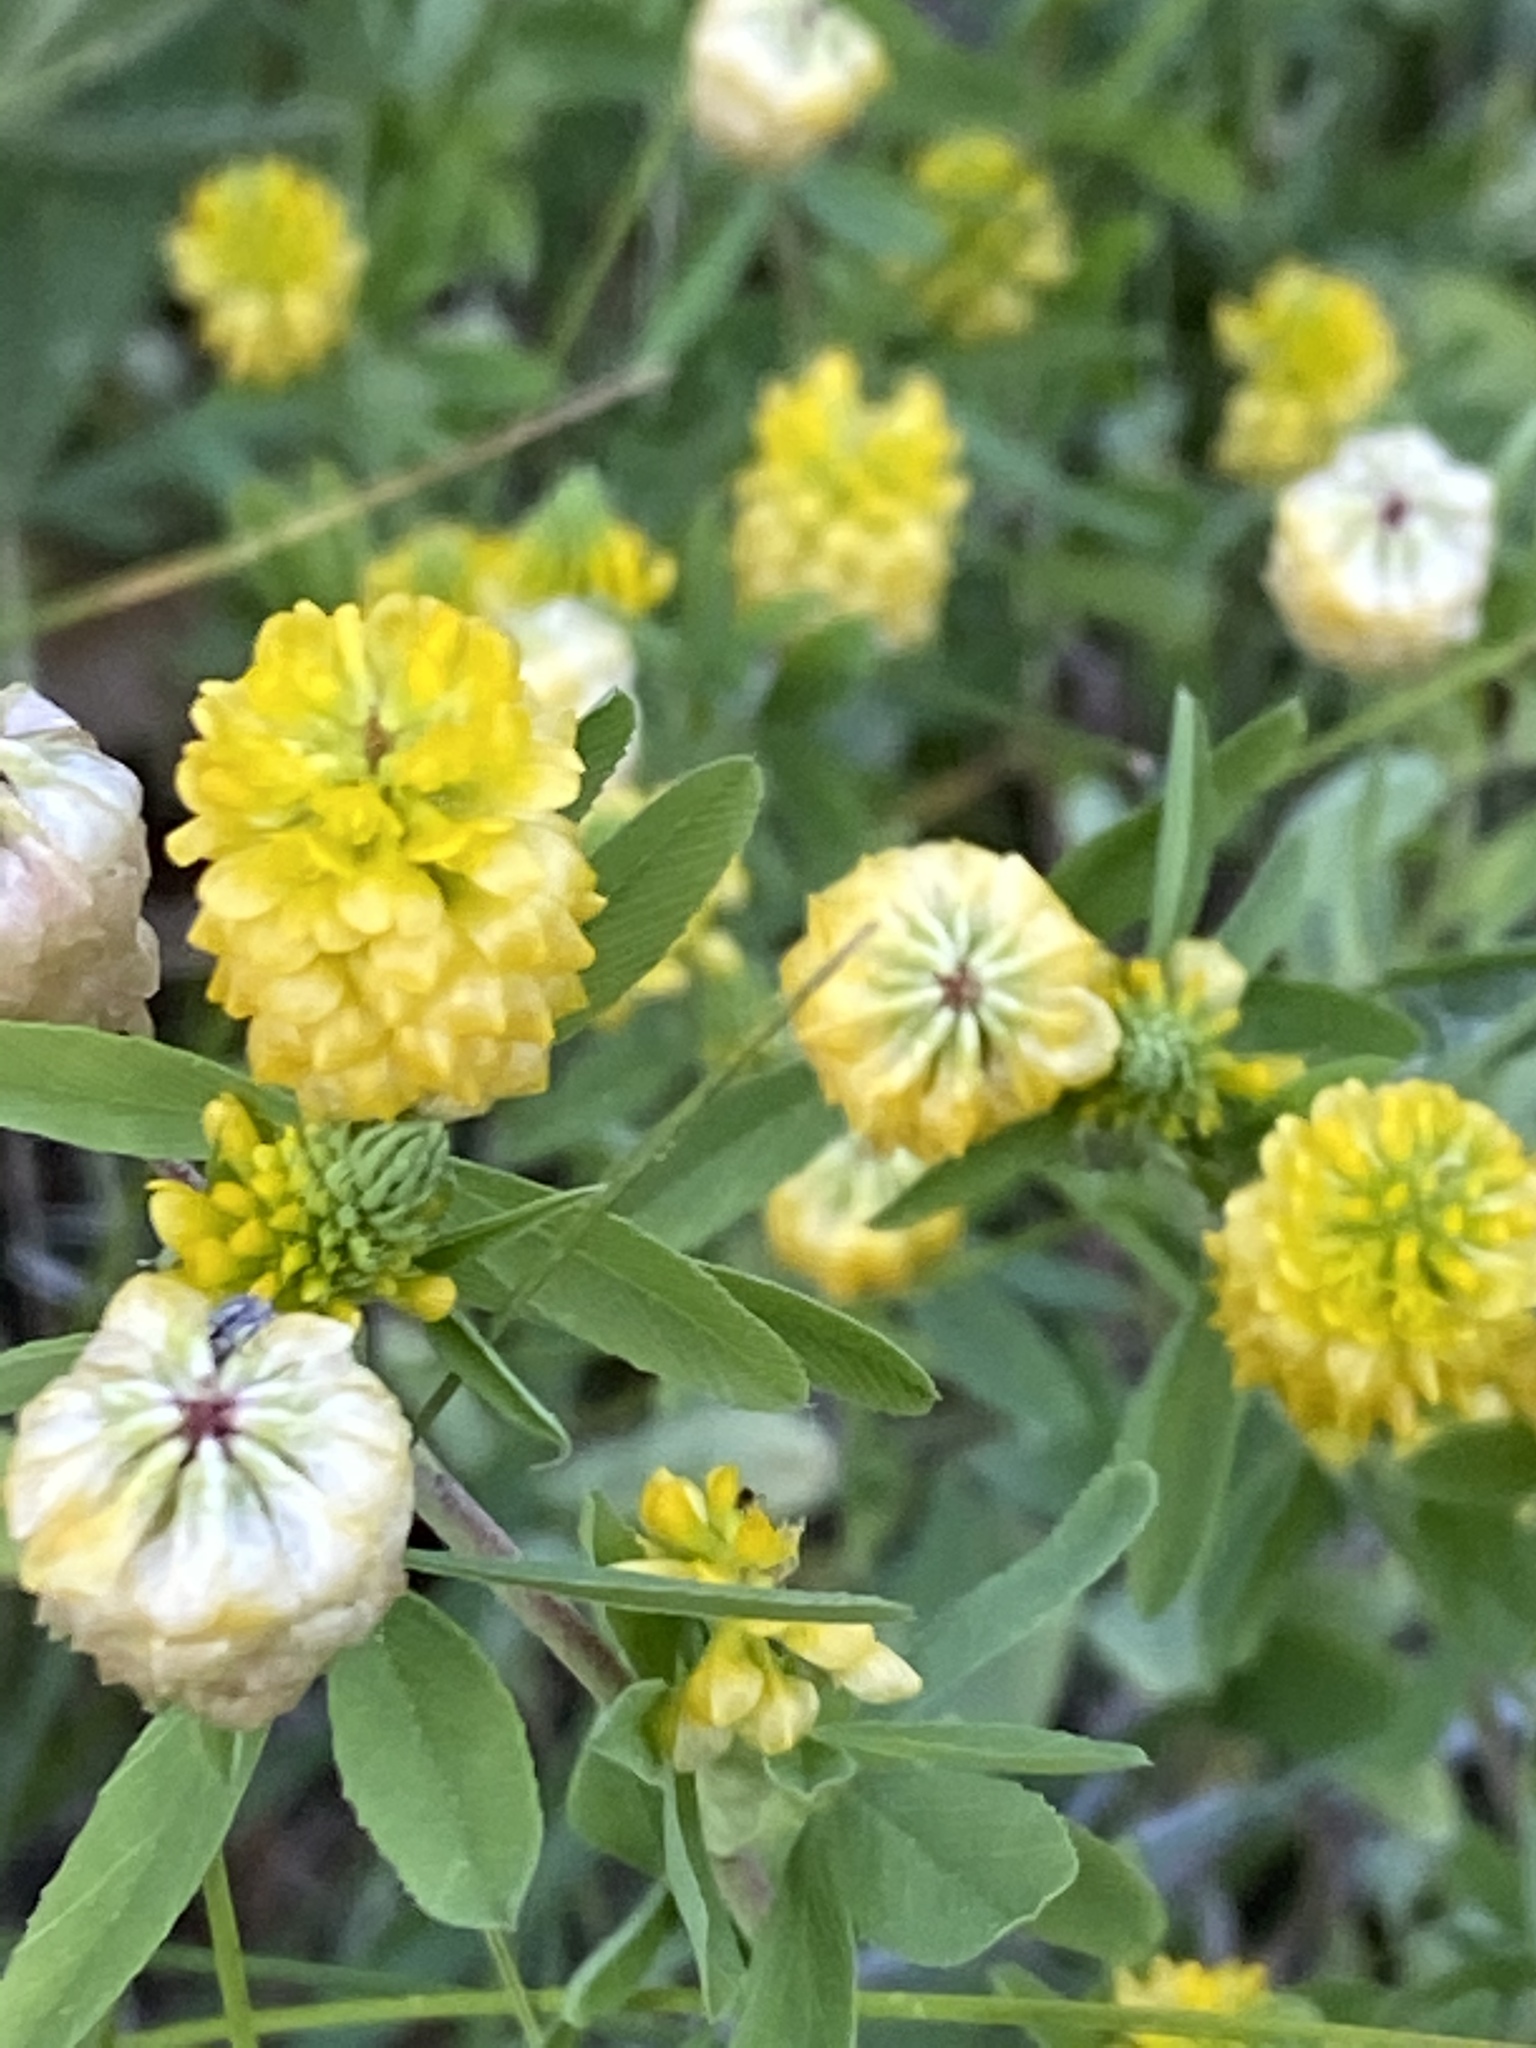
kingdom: Plantae
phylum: Tracheophyta
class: Magnoliopsida
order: Fabales
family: Fabaceae
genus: Trifolium
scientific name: Trifolium aureum
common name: Golden clover
